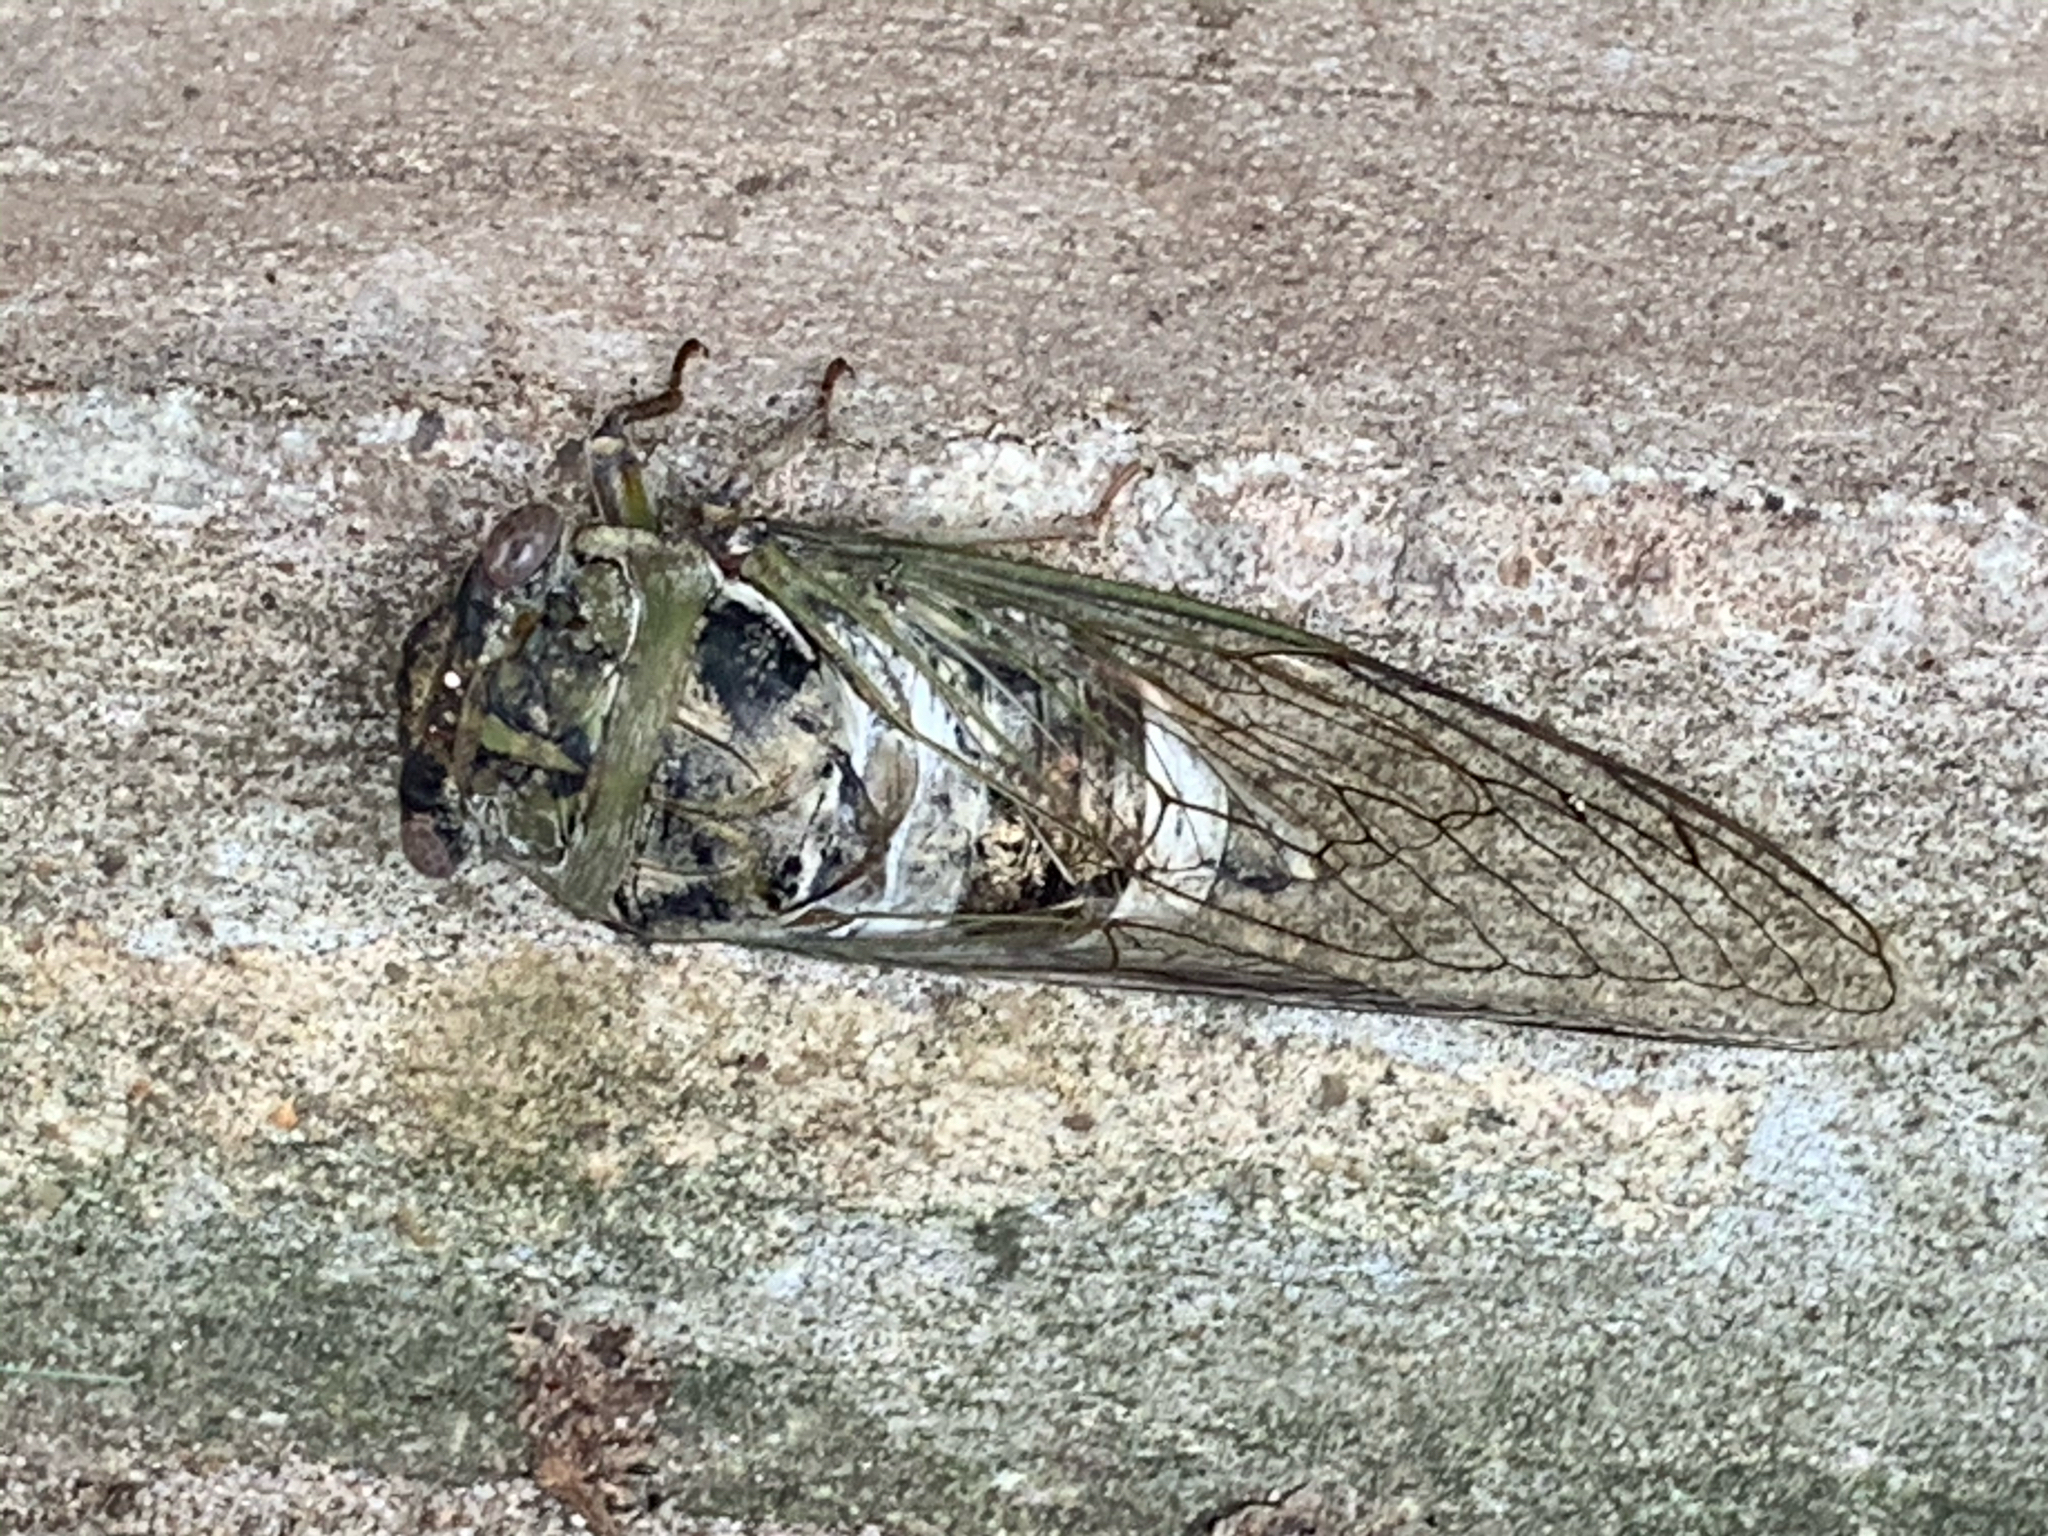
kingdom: Animalia
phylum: Arthropoda
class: Insecta
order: Hemiptera
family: Cicadidae
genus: Diceroprocta
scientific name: Diceroprocta grossa
